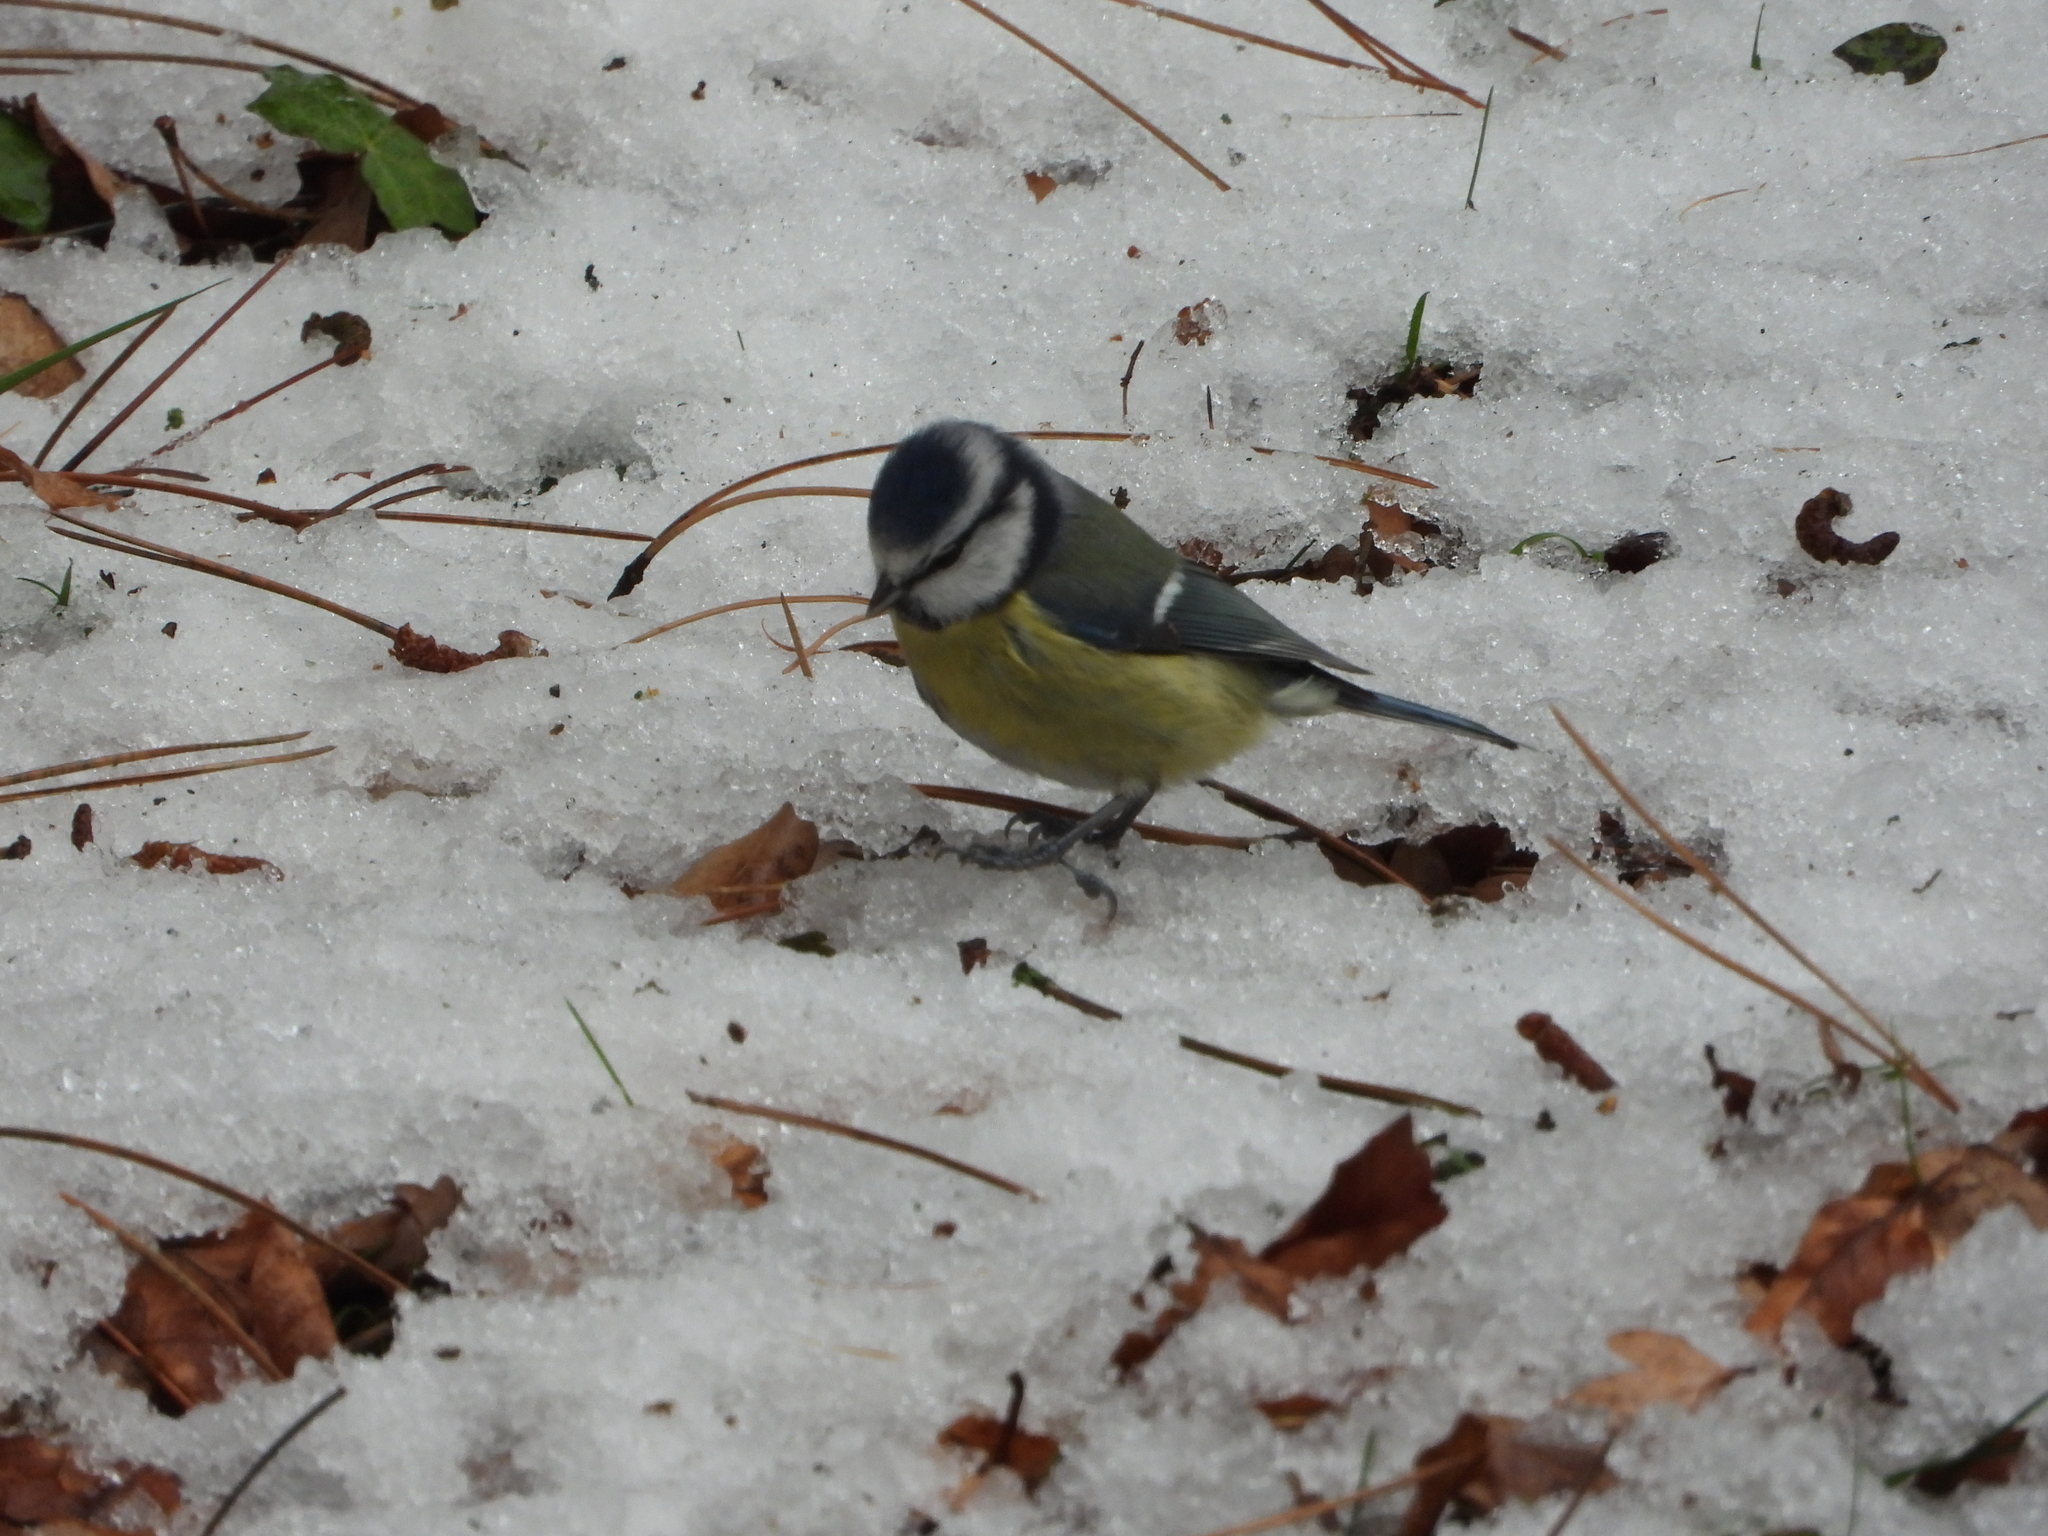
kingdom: Animalia
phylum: Chordata
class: Aves
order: Passeriformes
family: Paridae
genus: Cyanistes
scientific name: Cyanistes caeruleus
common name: Eurasian blue tit
